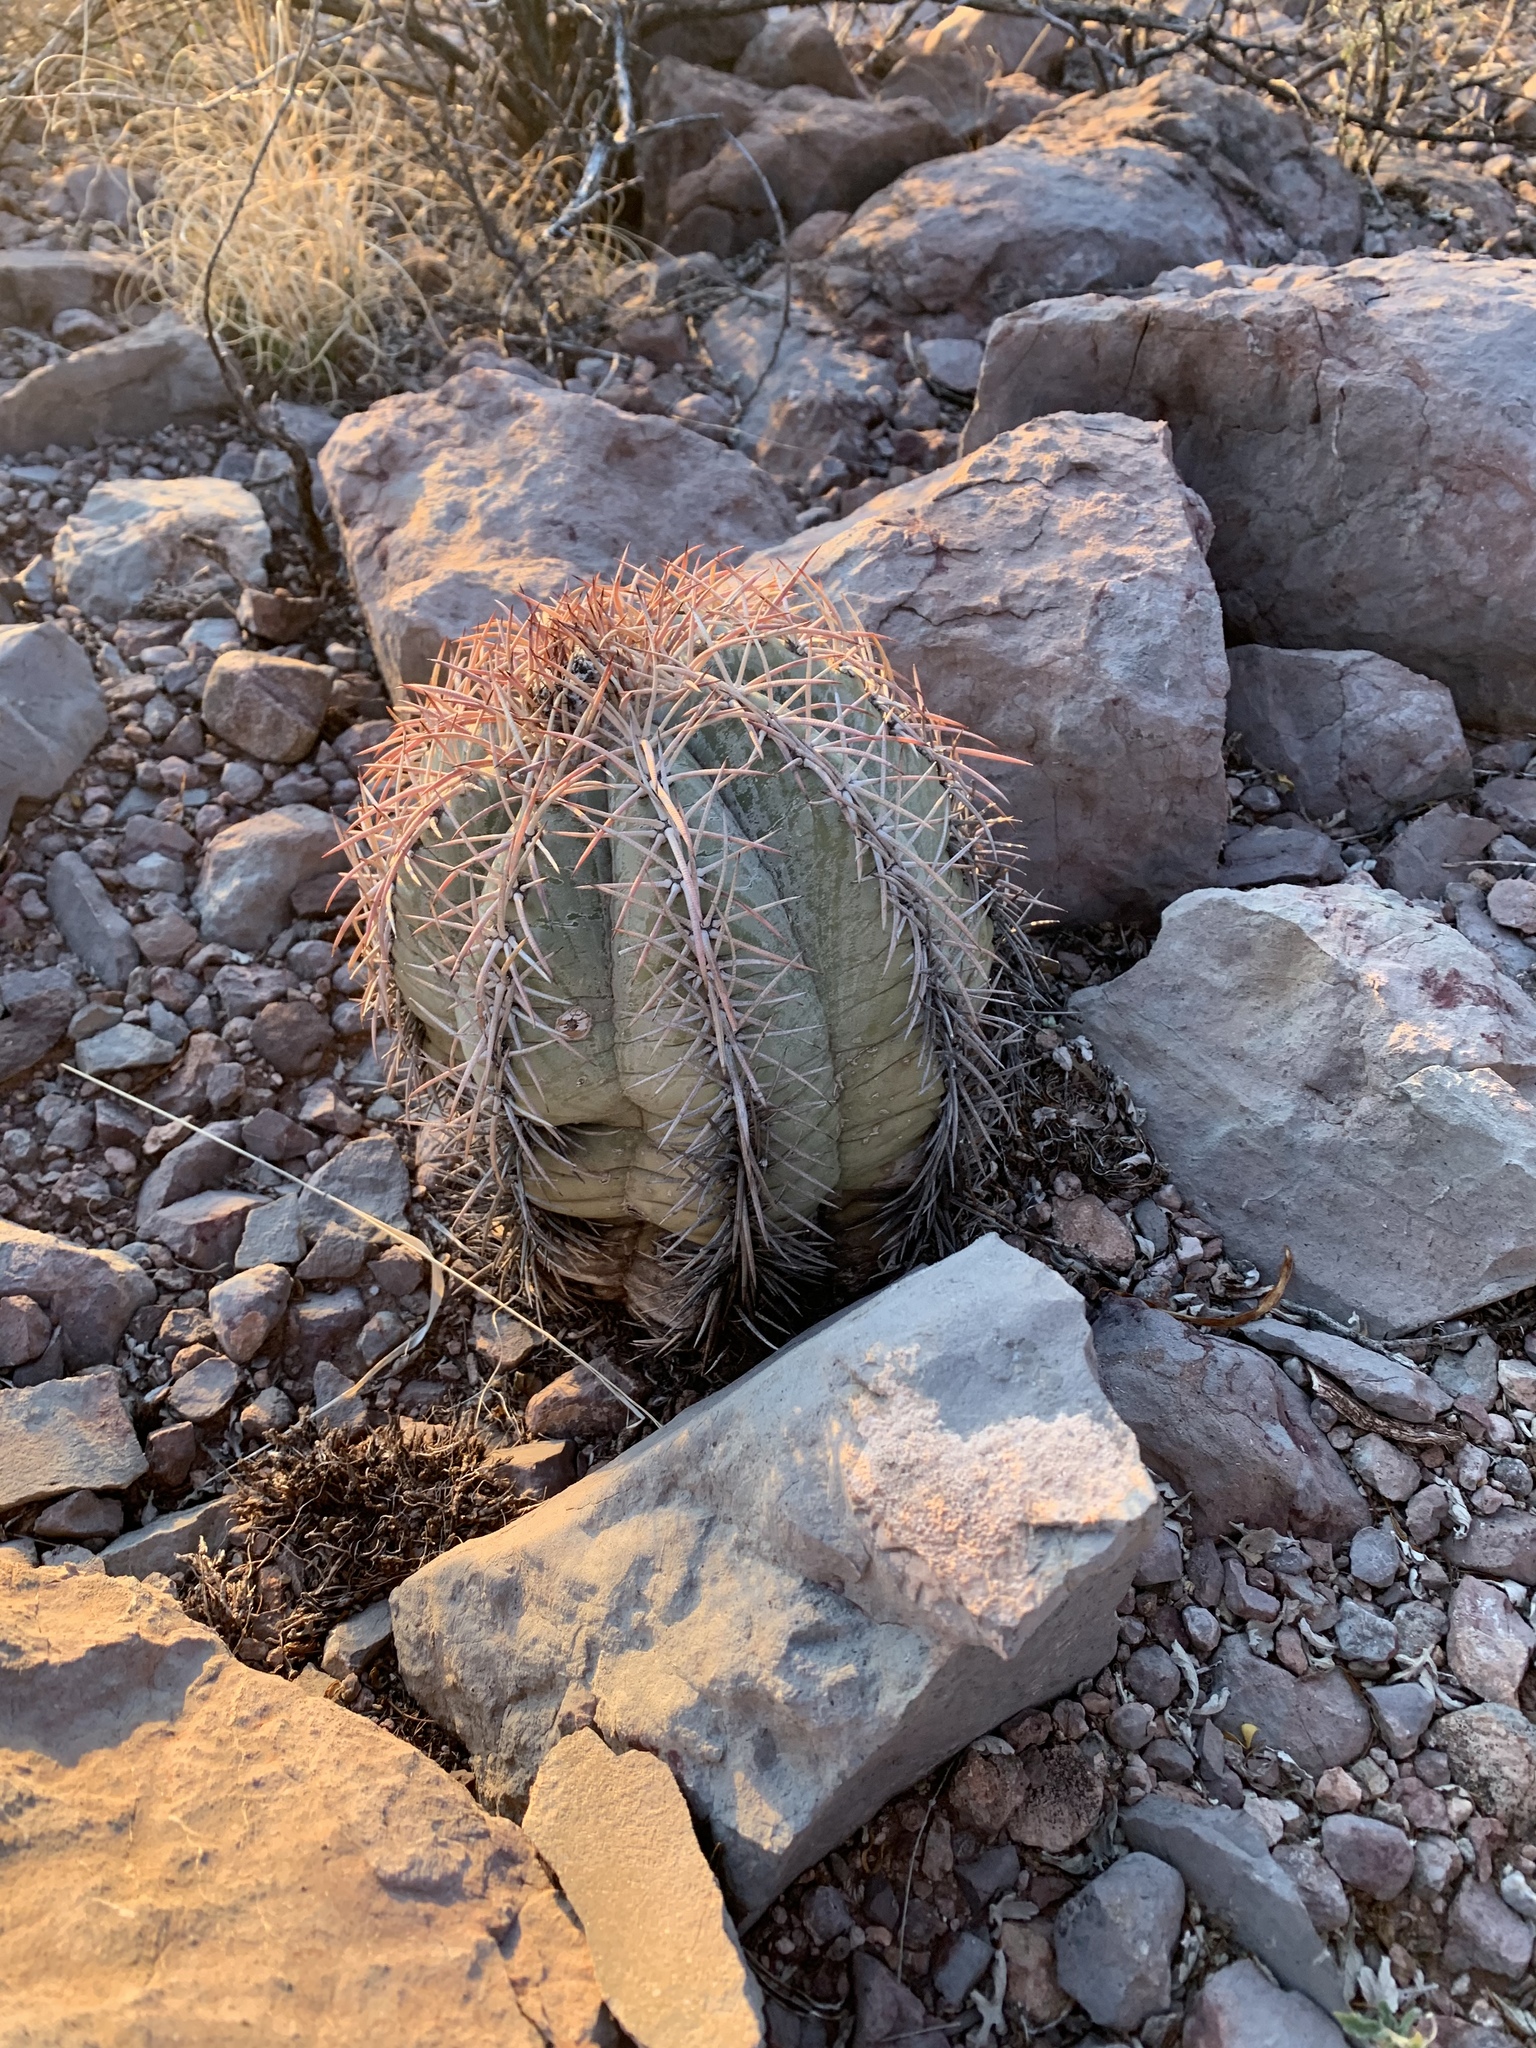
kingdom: Plantae
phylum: Tracheophyta
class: Magnoliopsida
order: Caryophyllales
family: Cactaceae
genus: Echinocactus
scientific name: Echinocactus horizonthalonius
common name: Devilshead
